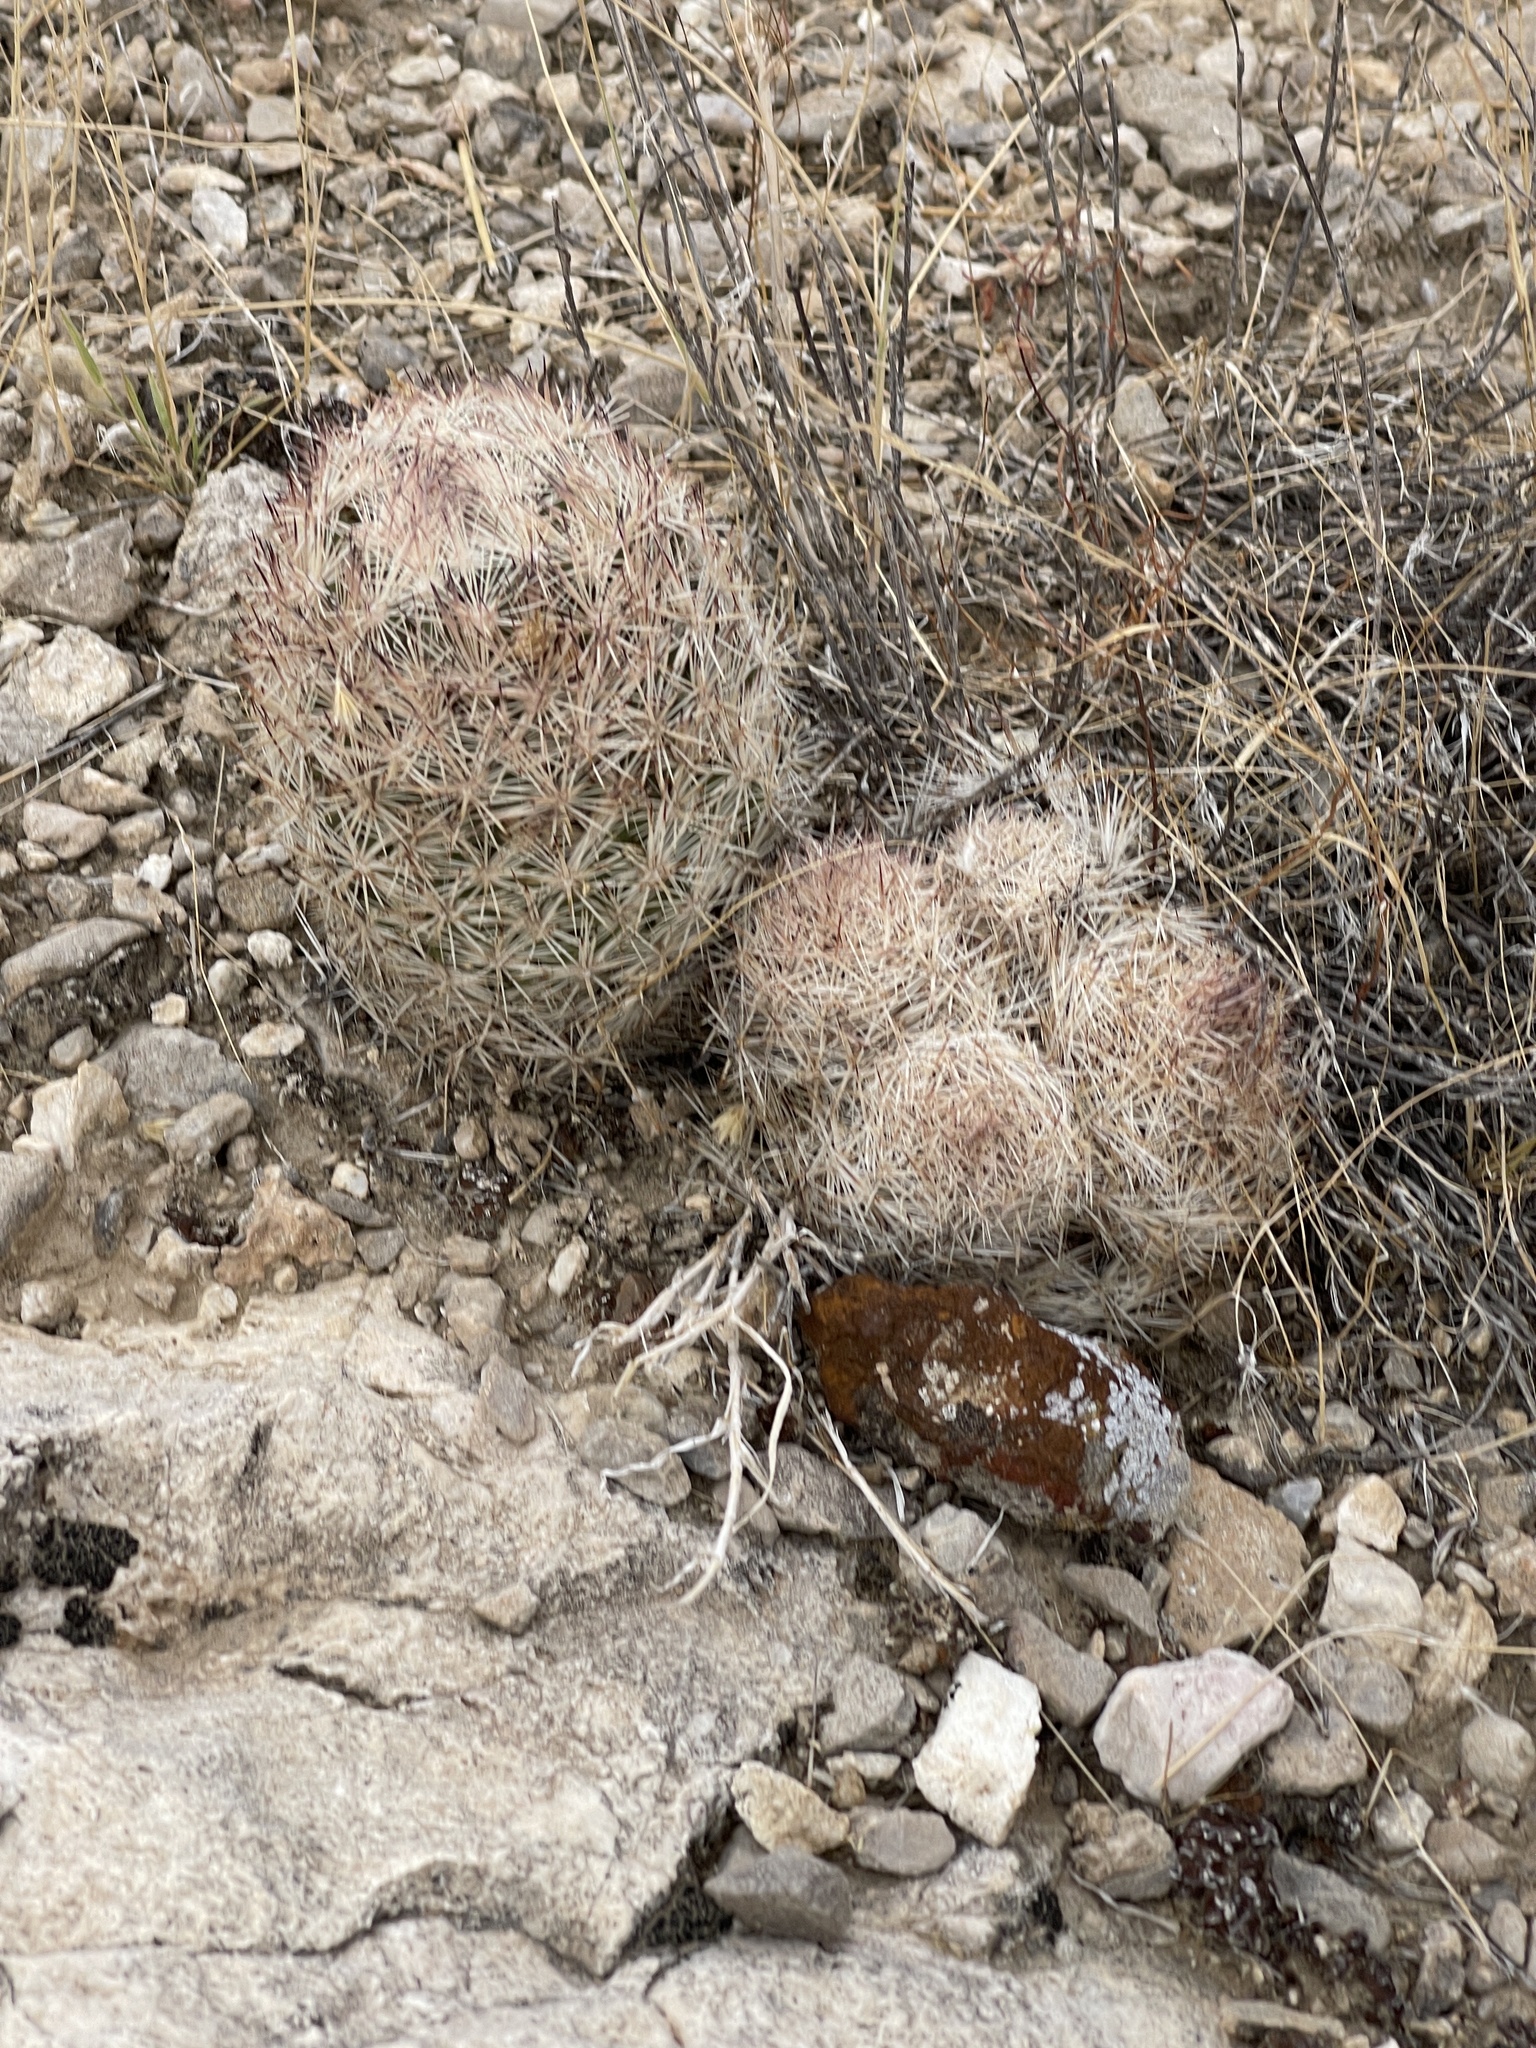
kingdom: Plantae
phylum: Tracheophyta
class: Magnoliopsida
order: Caryophyllales
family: Cactaceae
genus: Pelecyphora
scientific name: Pelecyphora dasyacantha
